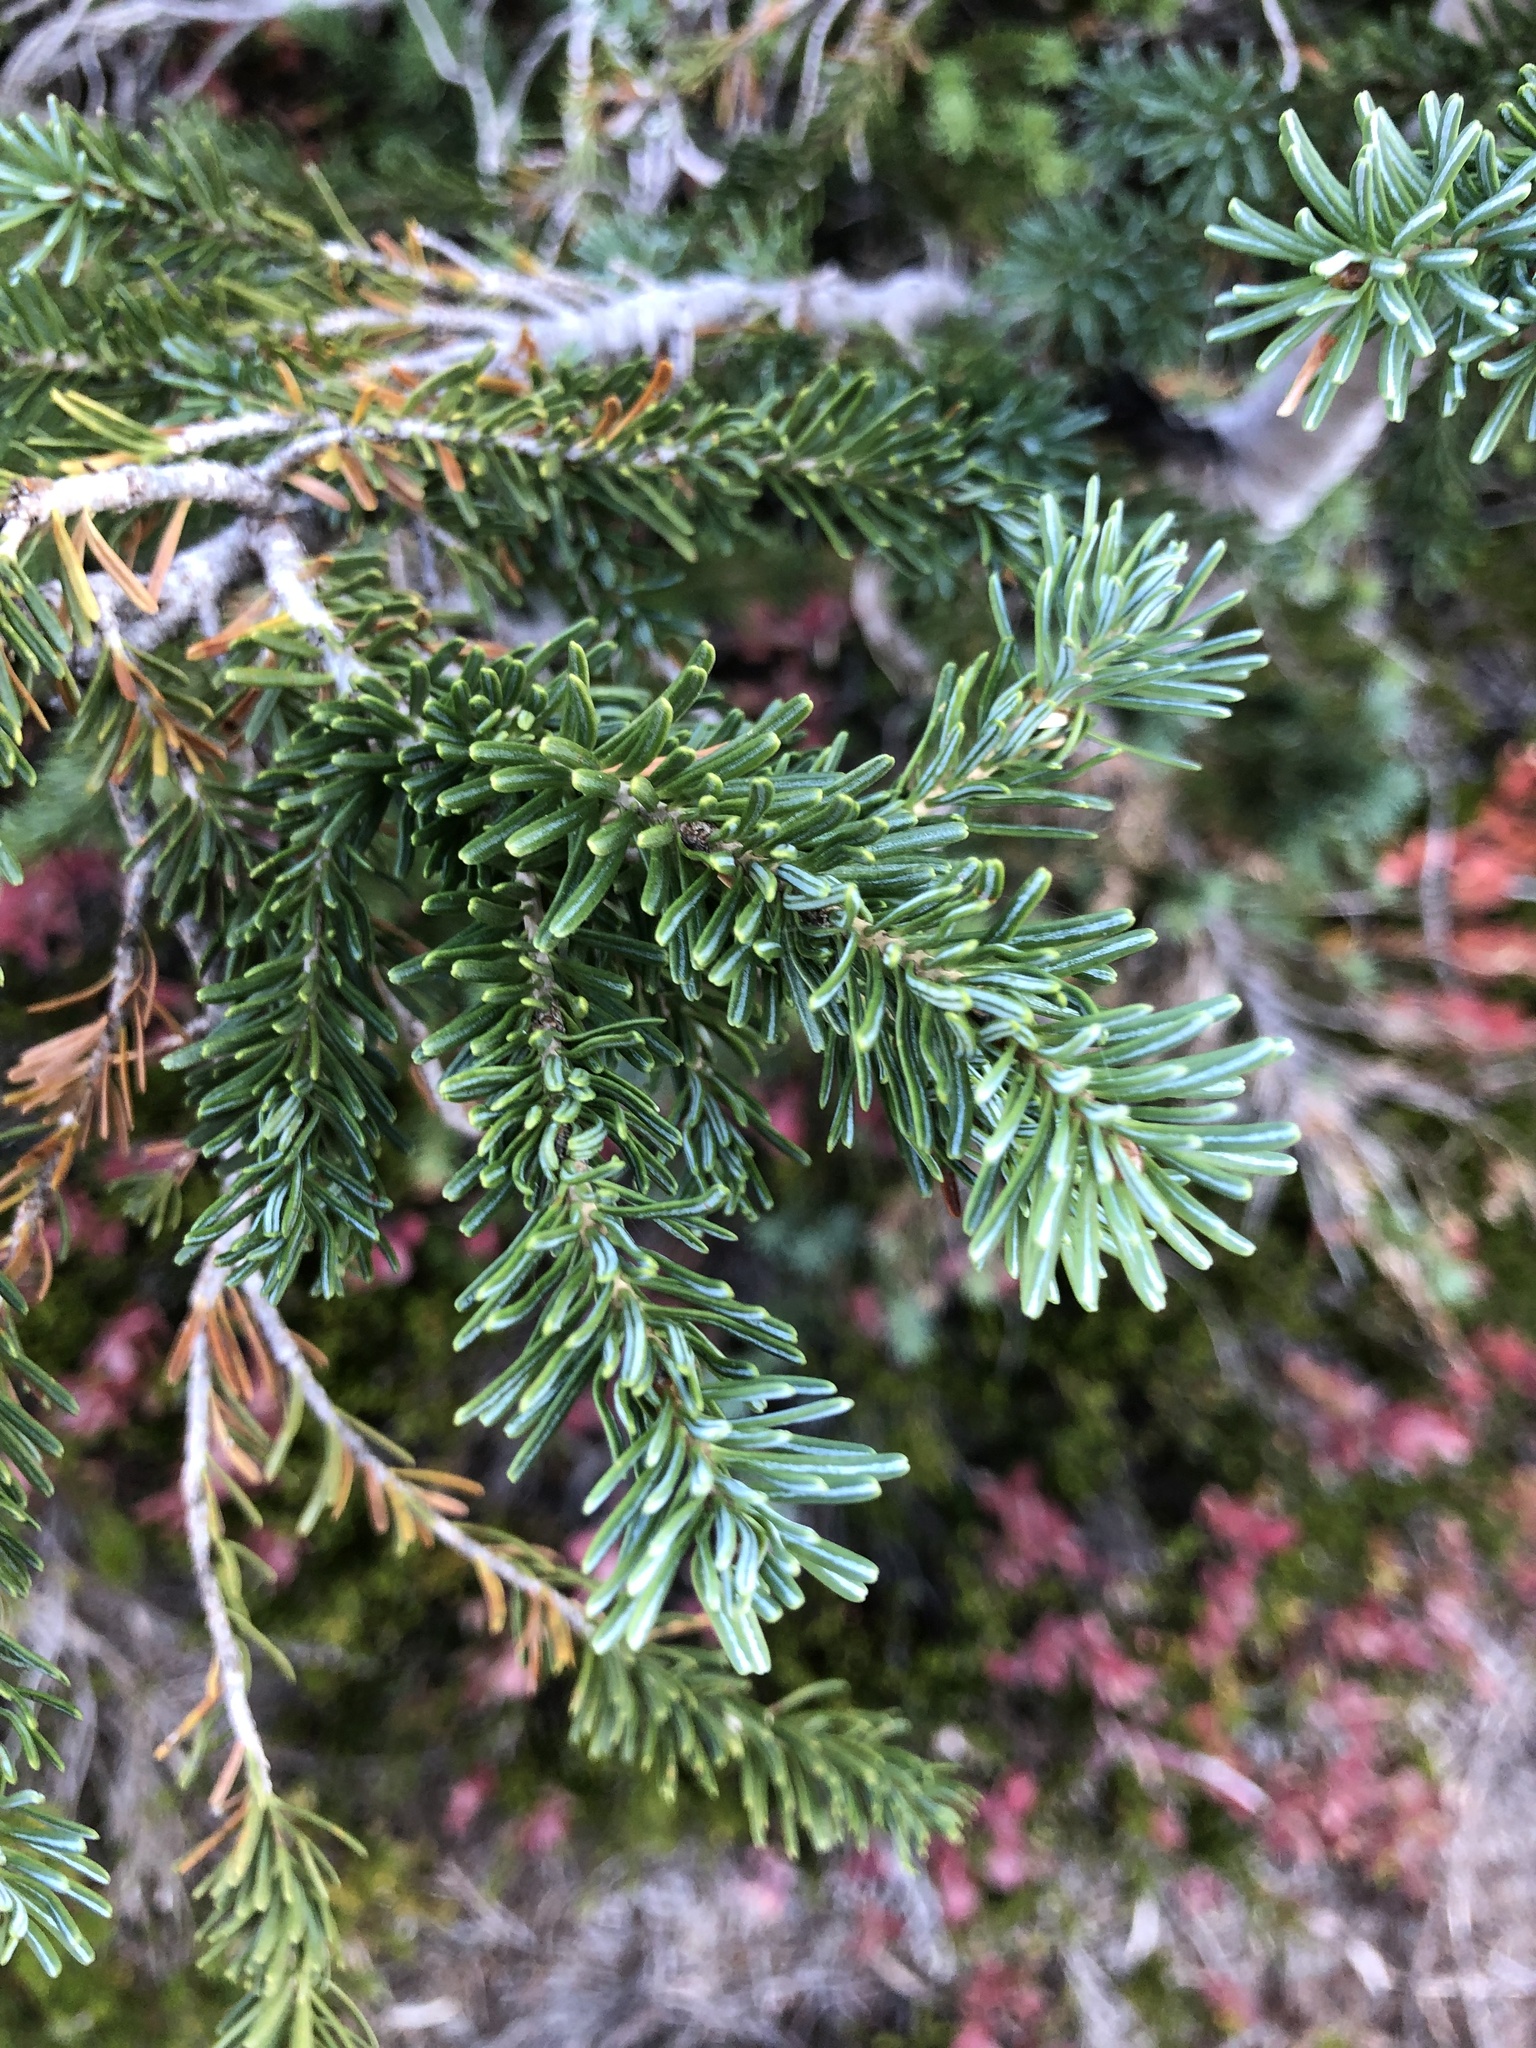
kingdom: Plantae
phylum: Tracheophyta
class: Pinopsida
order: Pinales
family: Pinaceae
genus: Abies
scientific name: Abies lasiocarpa
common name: Subalpine fir
